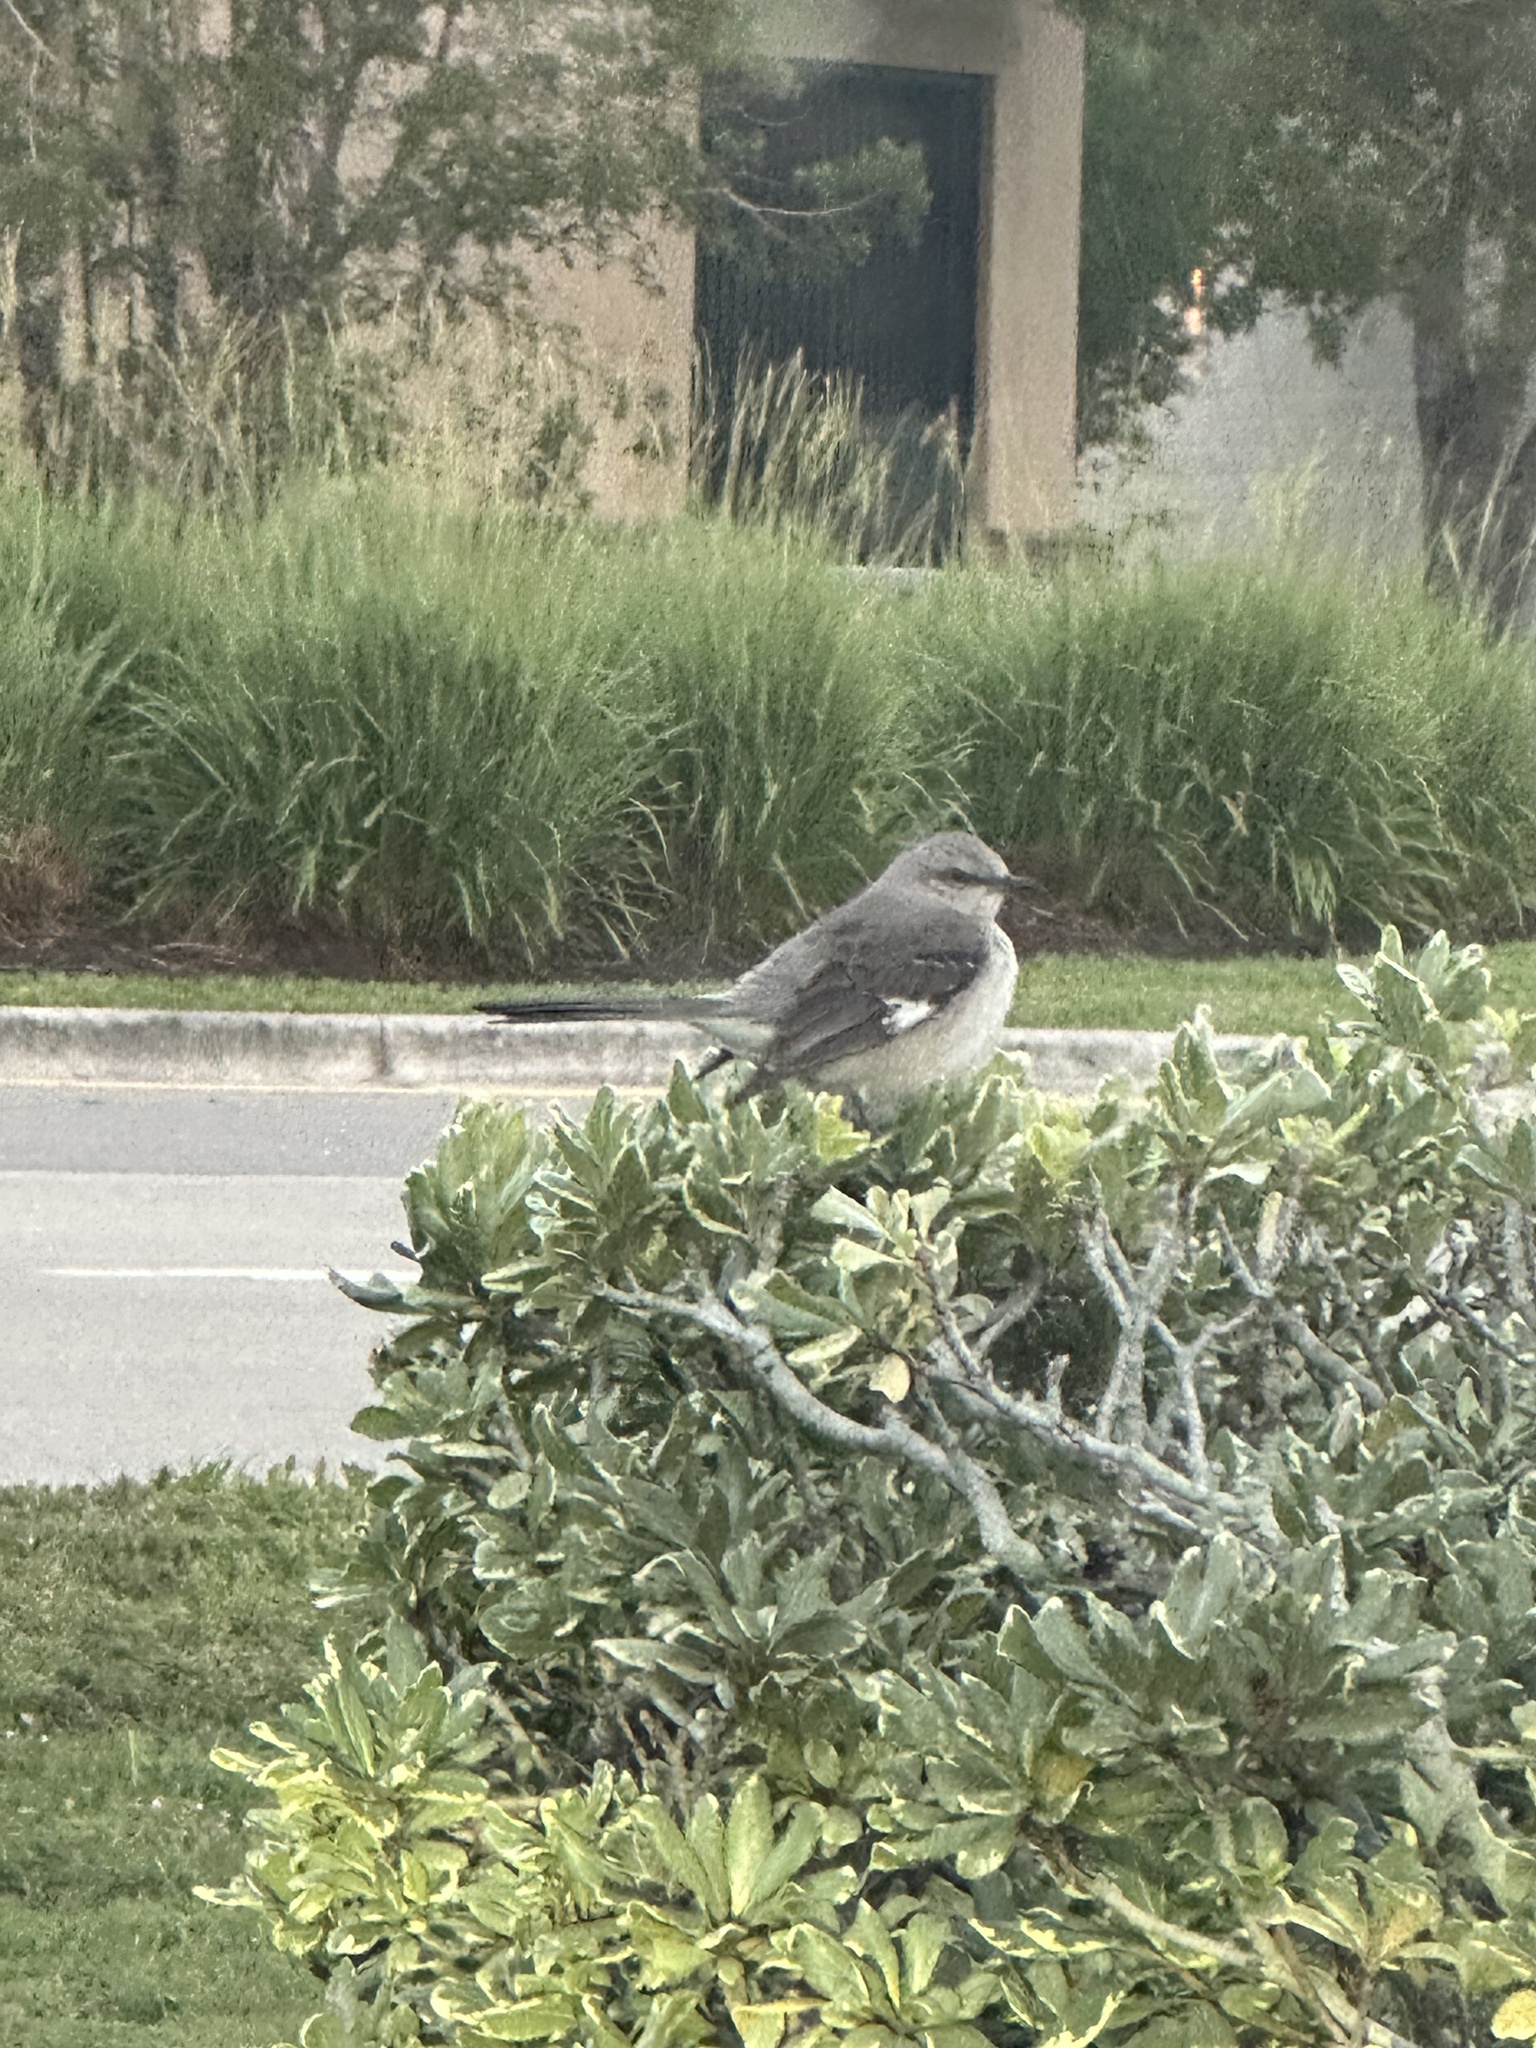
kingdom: Animalia
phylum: Chordata
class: Aves
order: Passeriformes
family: Mimidae
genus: Mimus
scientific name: Mimus polyglottos
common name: Northern mockingbird
